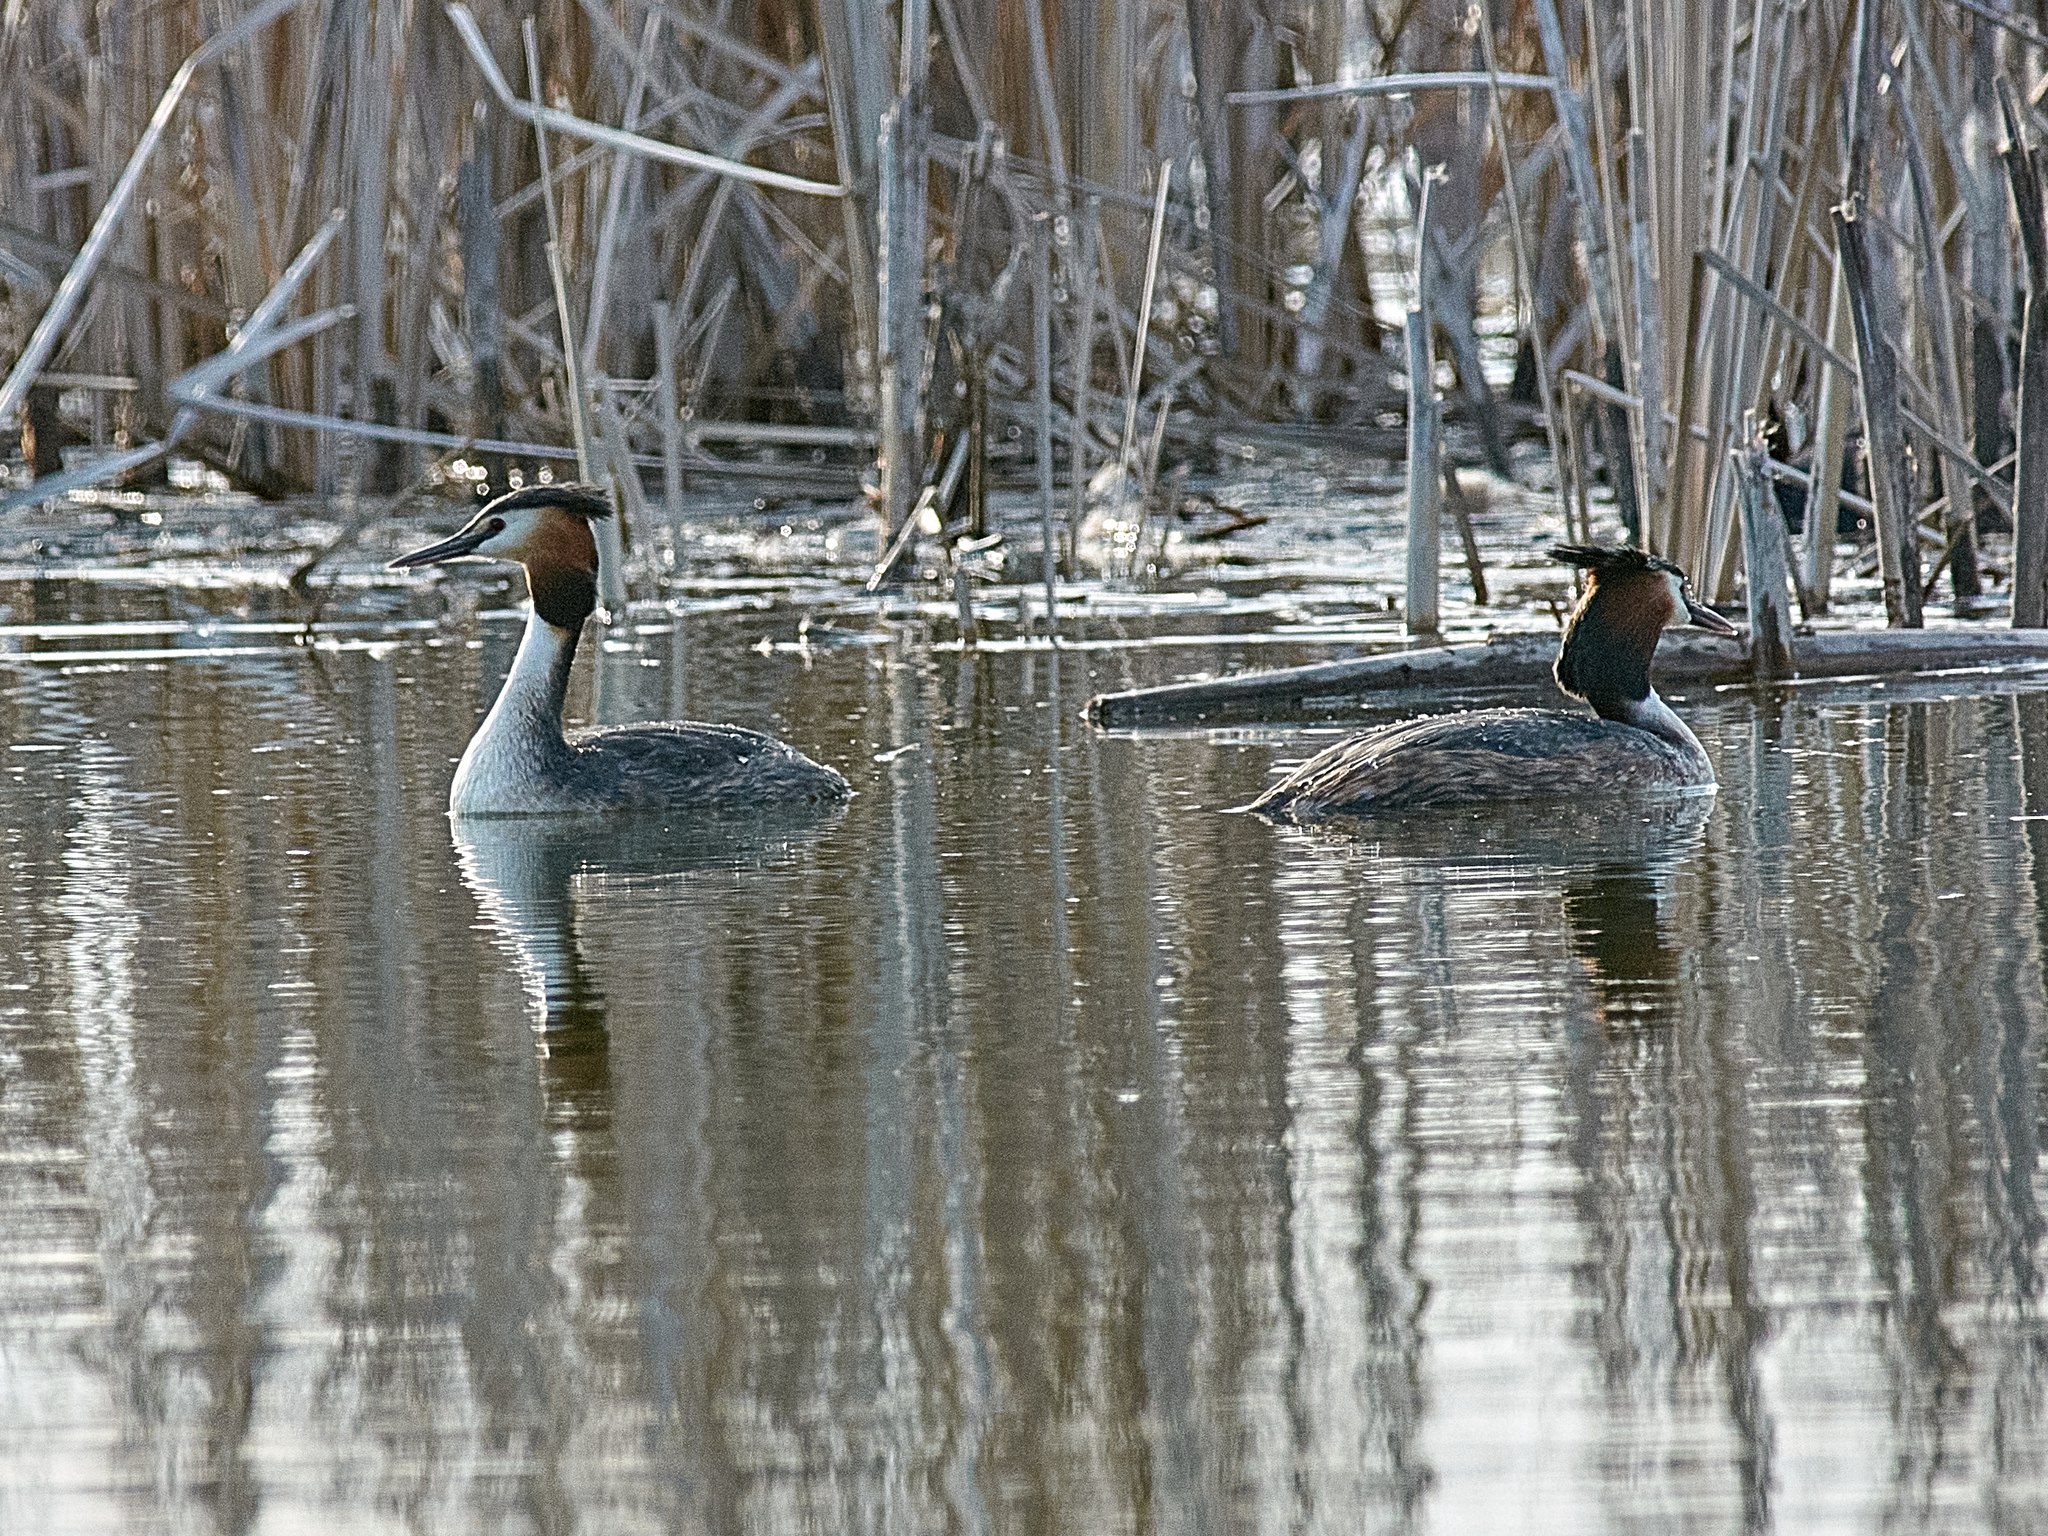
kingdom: Animalia
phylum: Chordata
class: Aves
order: Podicipediformes
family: Podicipedidae
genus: Podiceps
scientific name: Podiceps cristatus
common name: Great crested grebe
